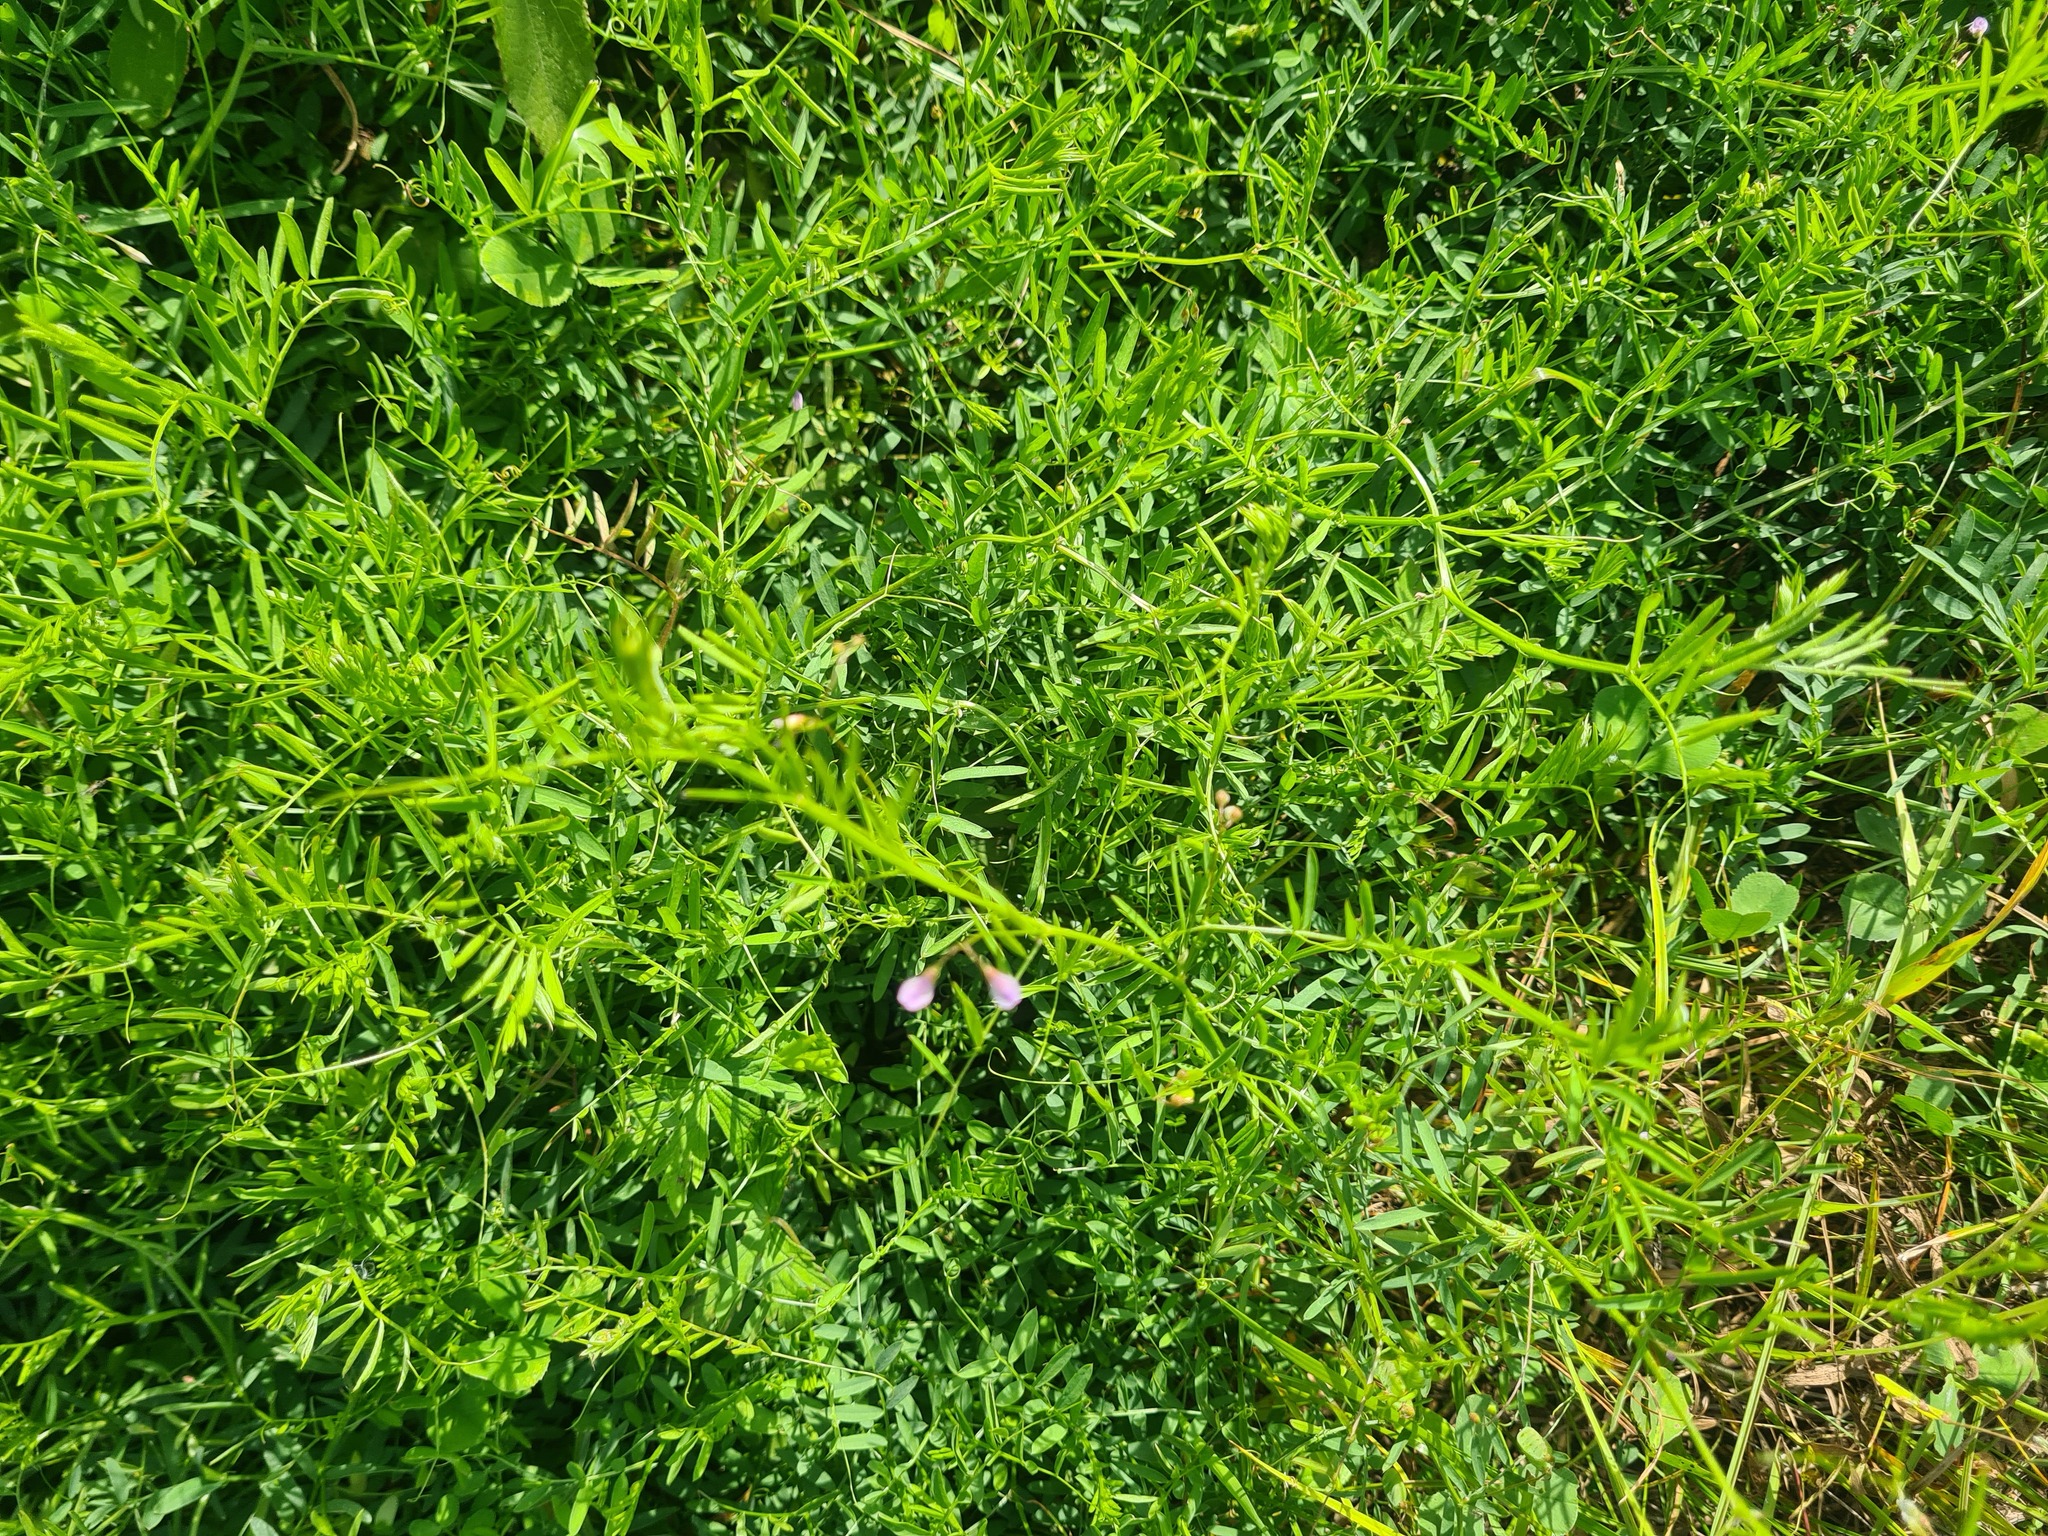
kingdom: Plantae
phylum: Tracheophyta
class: Magnoliopsida
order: Fabales
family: Fabaceae
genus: Vicia
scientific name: Vicia tetrasperma
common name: Smooth tare
